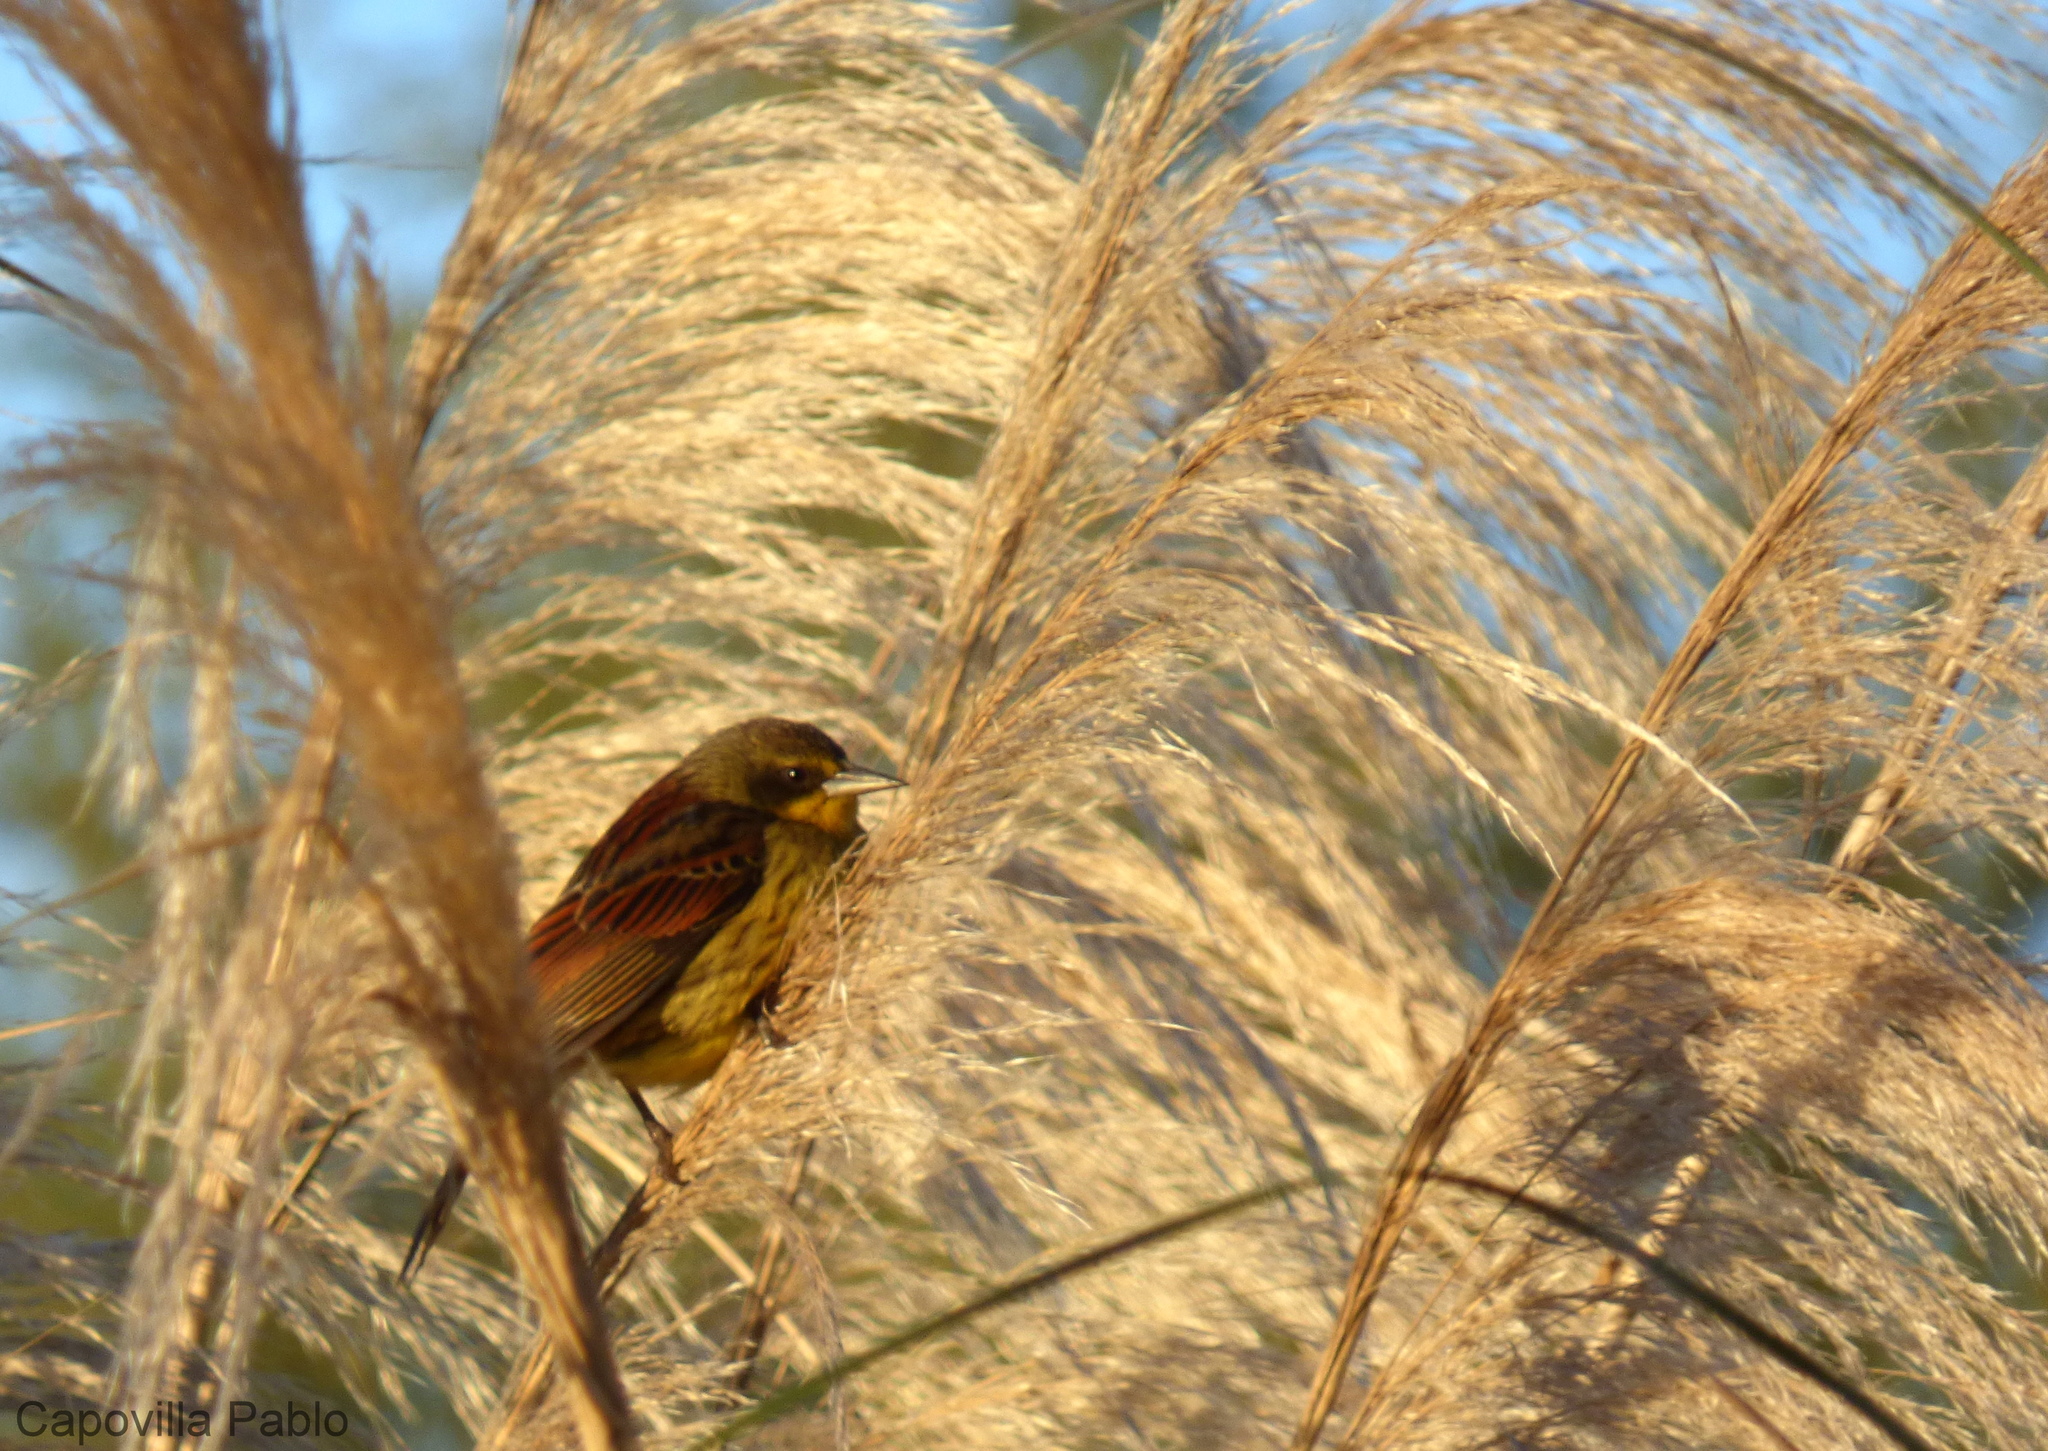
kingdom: Animalia
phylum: Chordata
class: Aves
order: Passeriformes
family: Icteridae
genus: Agelasticus
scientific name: Agelasticus cyanopus
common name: Unicolored blackbird
